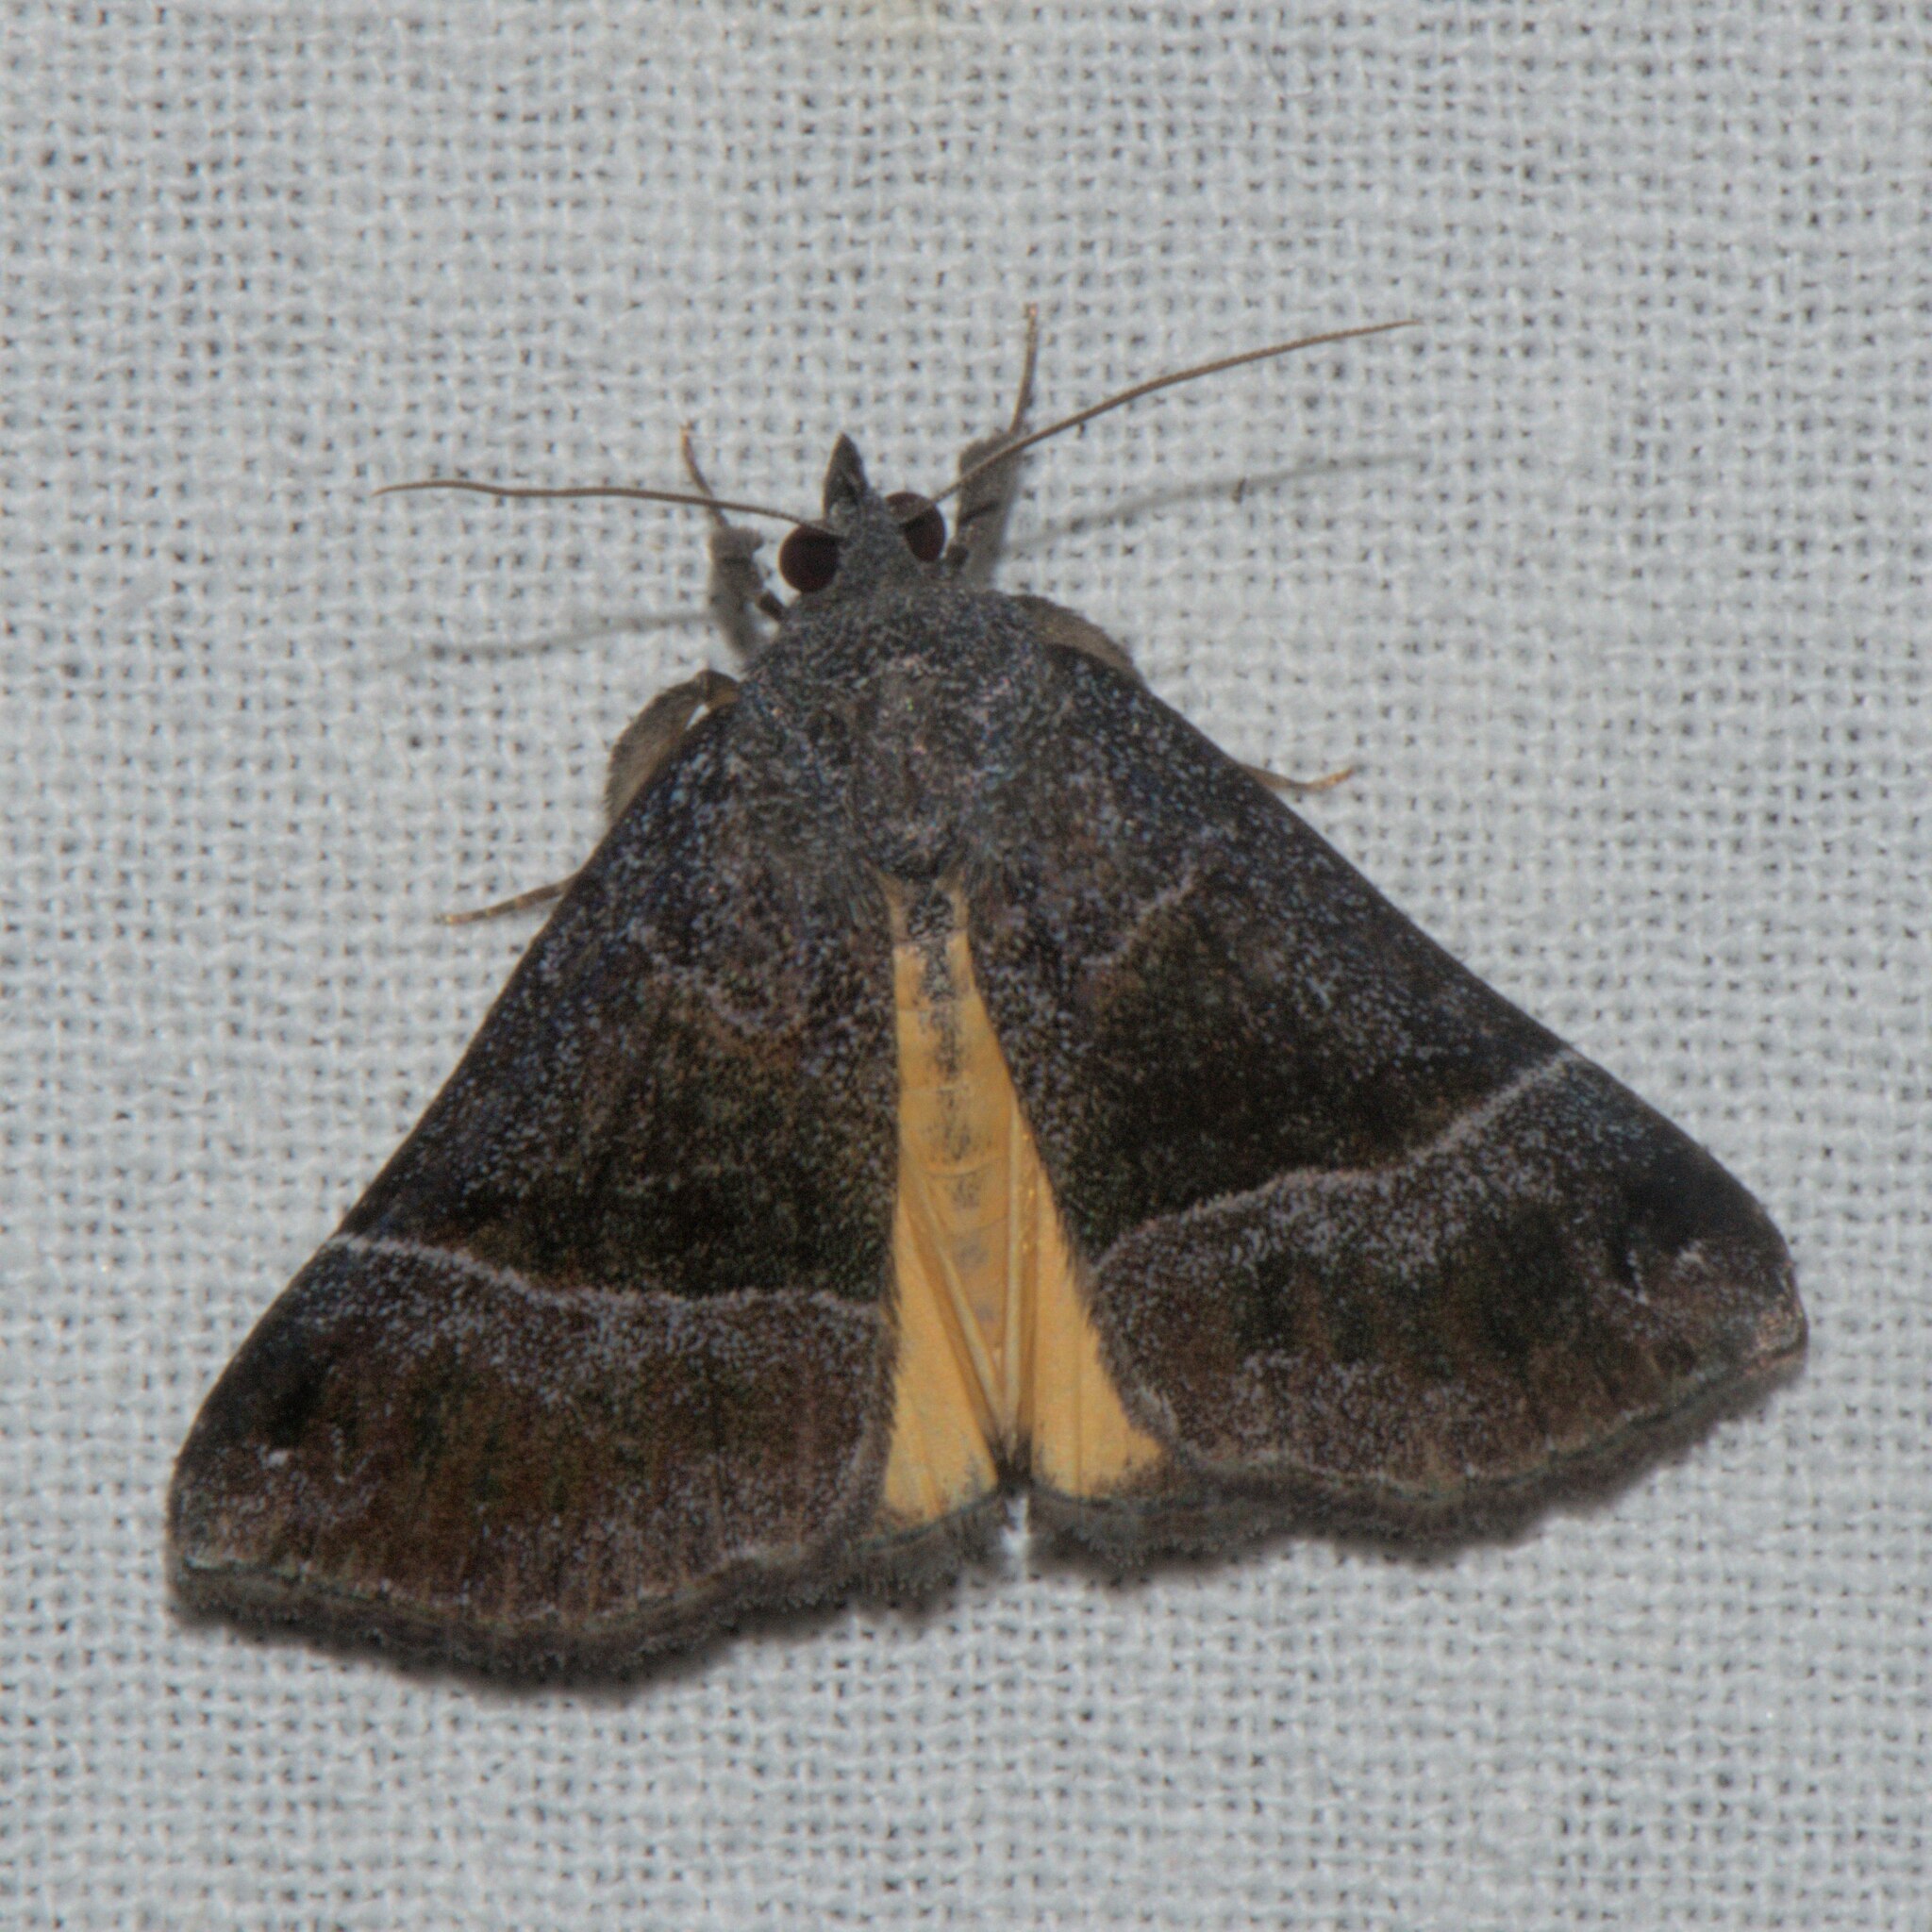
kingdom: Animalia
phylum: Arthropoda
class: Insecta
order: Lepidoptera
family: Erebidae
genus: Hypena
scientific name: Hypena amica
